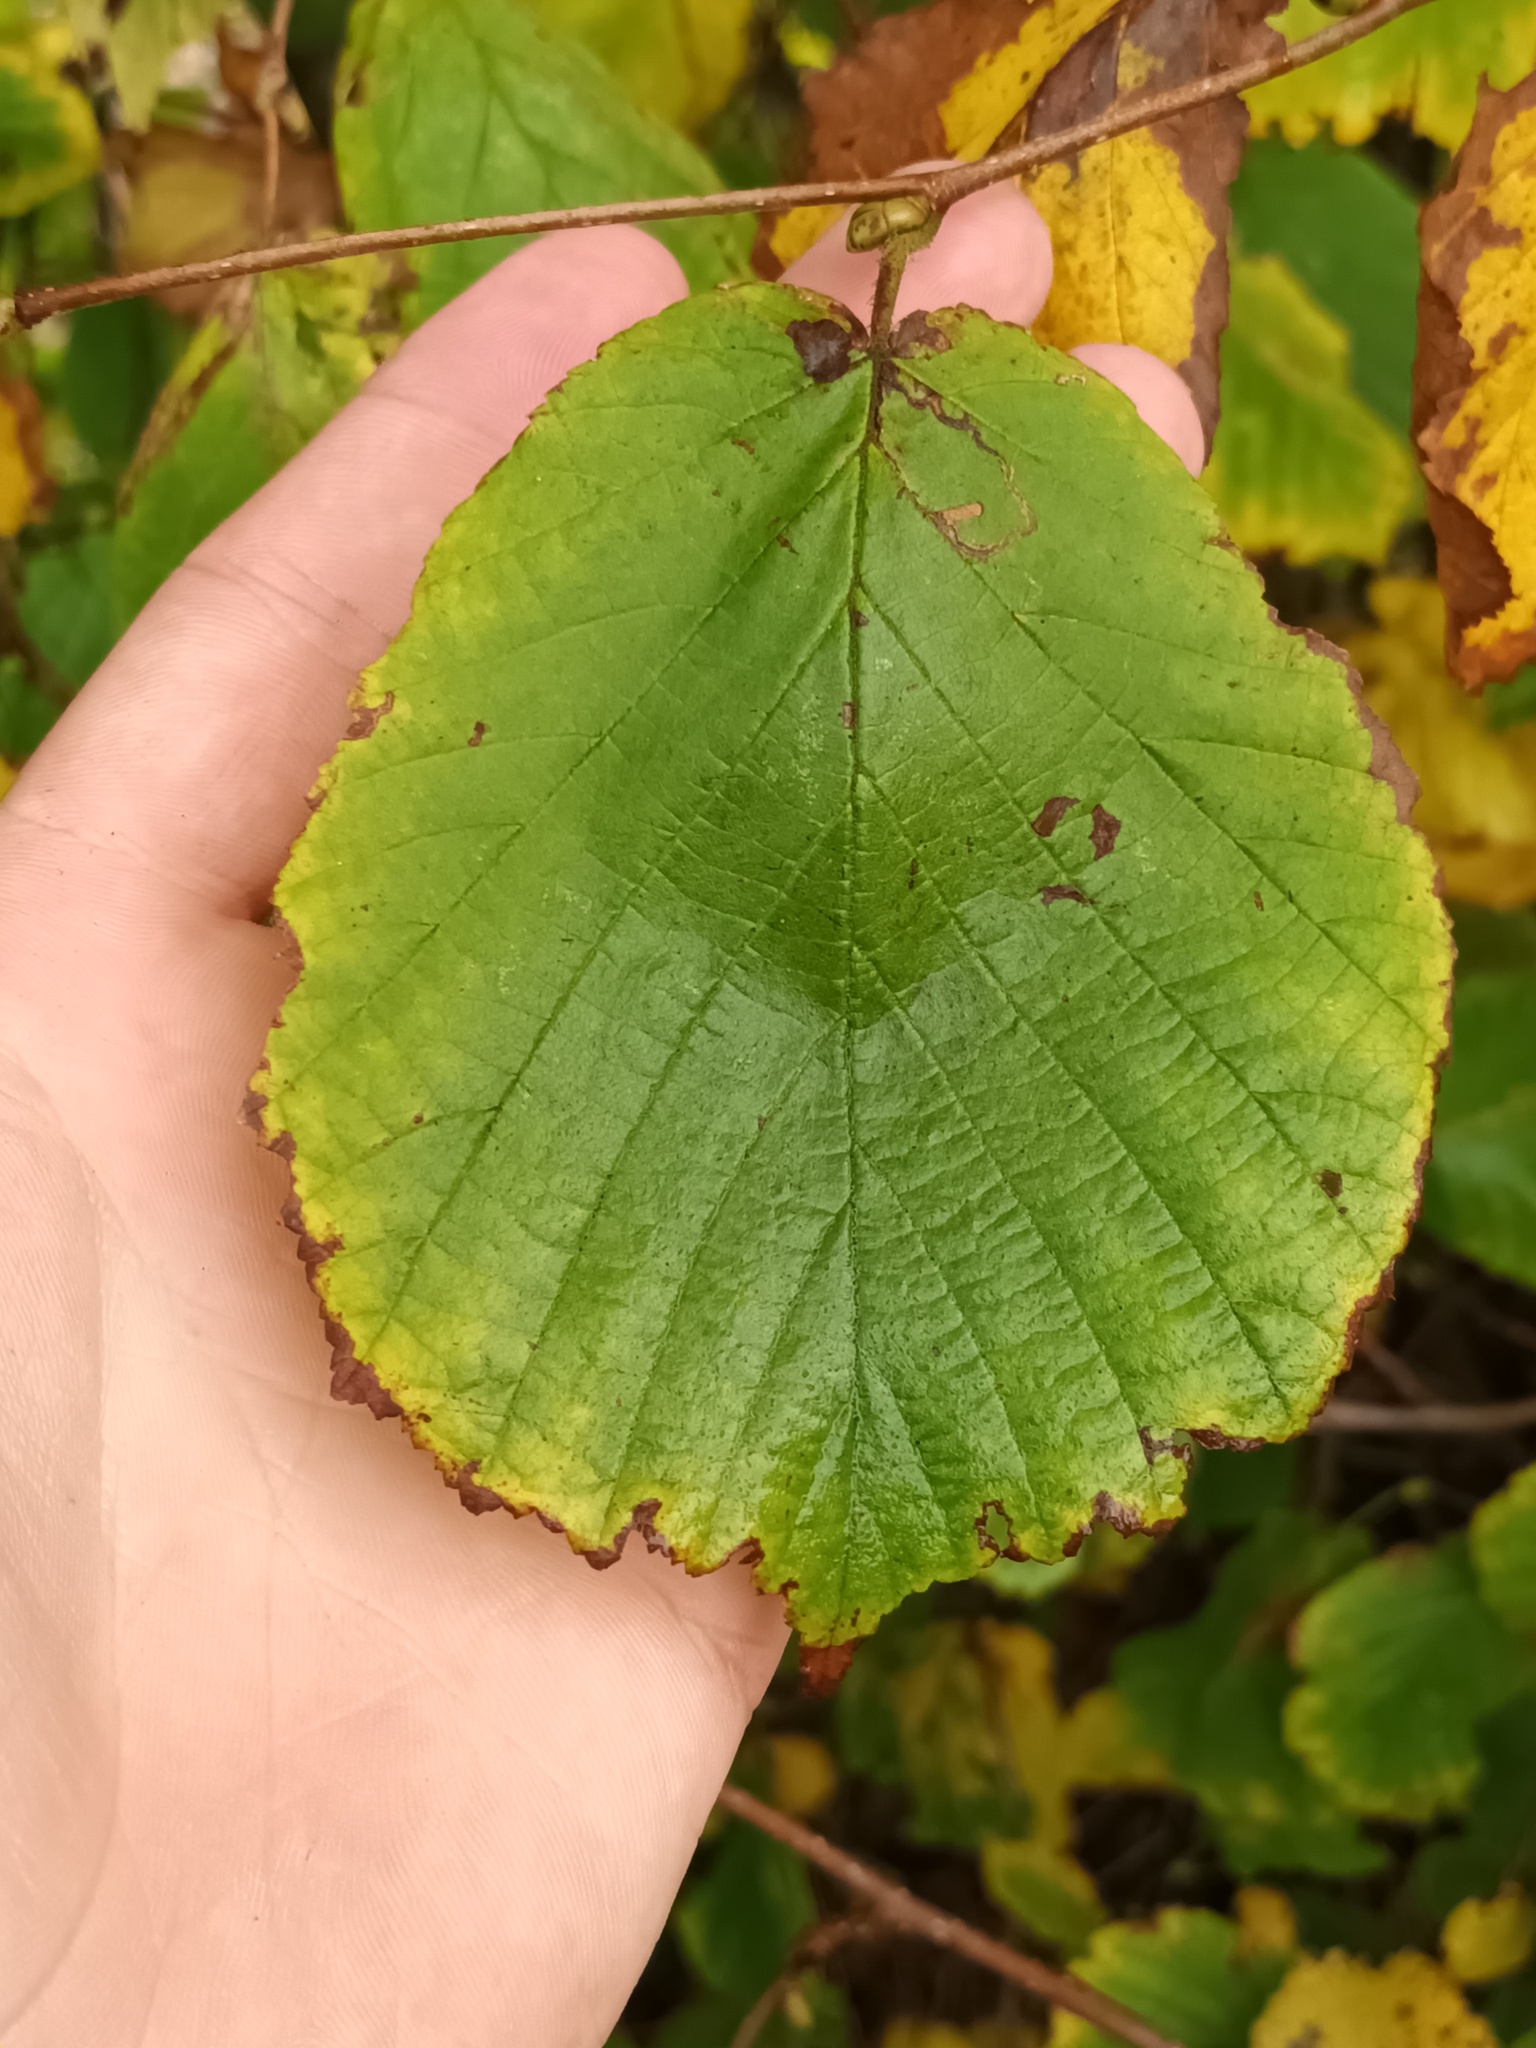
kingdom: Plantae
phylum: Tracheophyta
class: Magnoliopsida
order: Fagales
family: Betulaceae
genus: Corylus
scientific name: Corylus avellana
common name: European hazel
